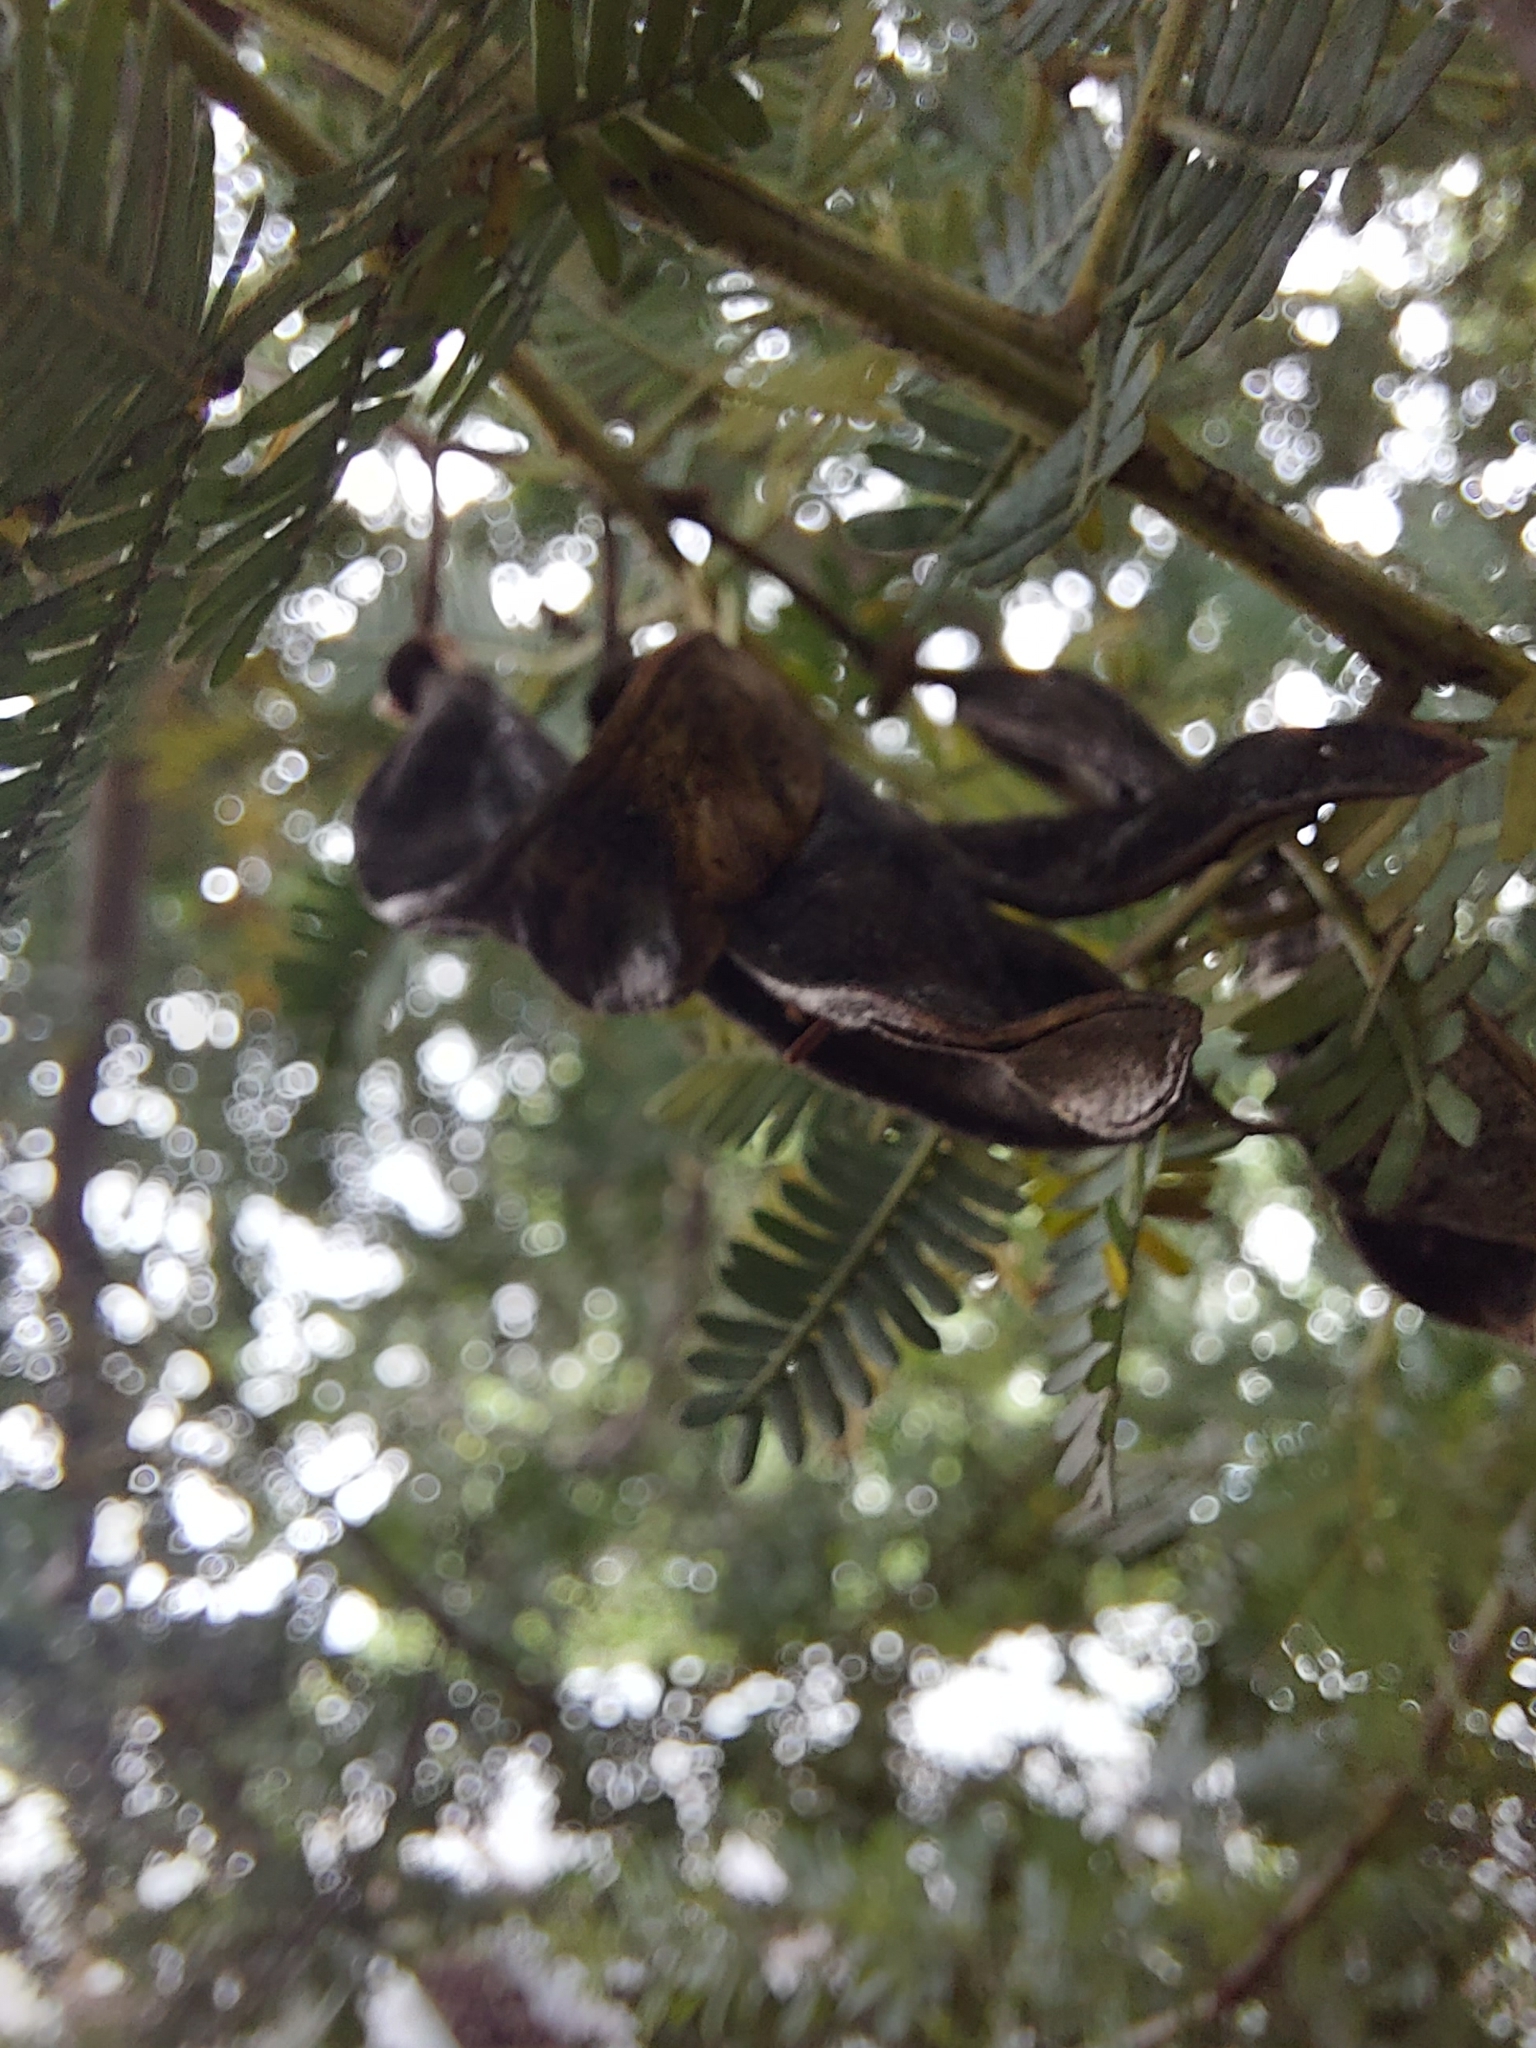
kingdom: Plantae
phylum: Tracheophyta
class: Magnoliopsida
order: Fabales
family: Fabaceae
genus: Acacia
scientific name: Acacia baileyana
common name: Cootamundra wattle
